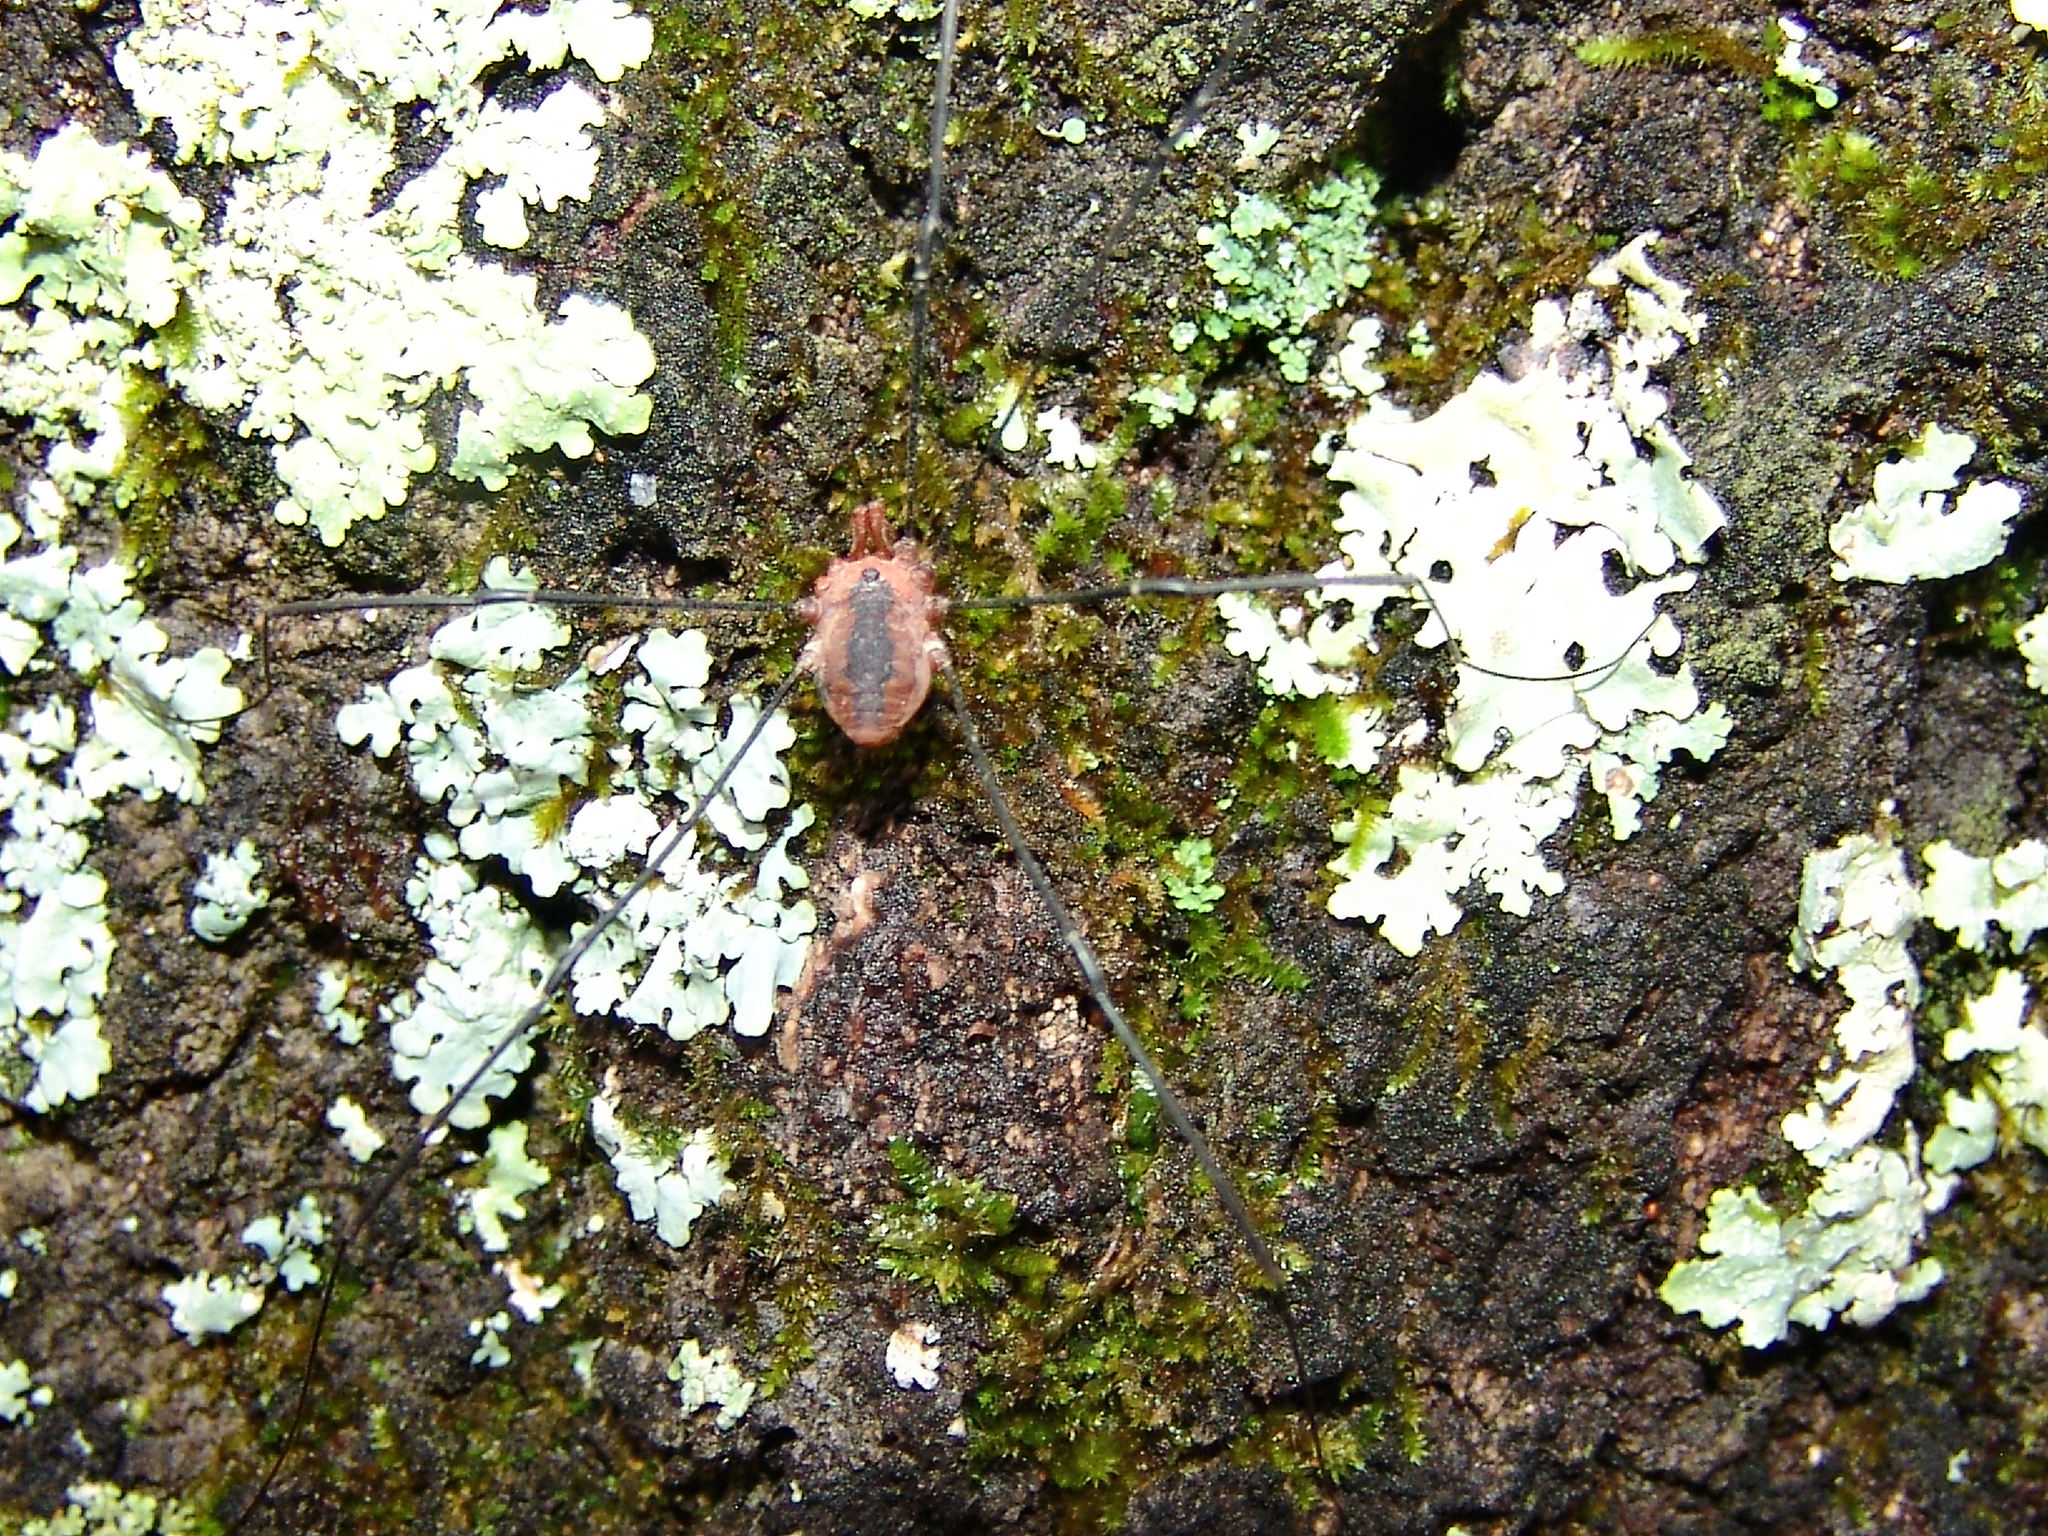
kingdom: Animalia
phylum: Arthropoda
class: Arachnida
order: Opiliones
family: Sclerosomatidae
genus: Leiobunum
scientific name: Leiobunum vittatum
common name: Eastern harvestman
